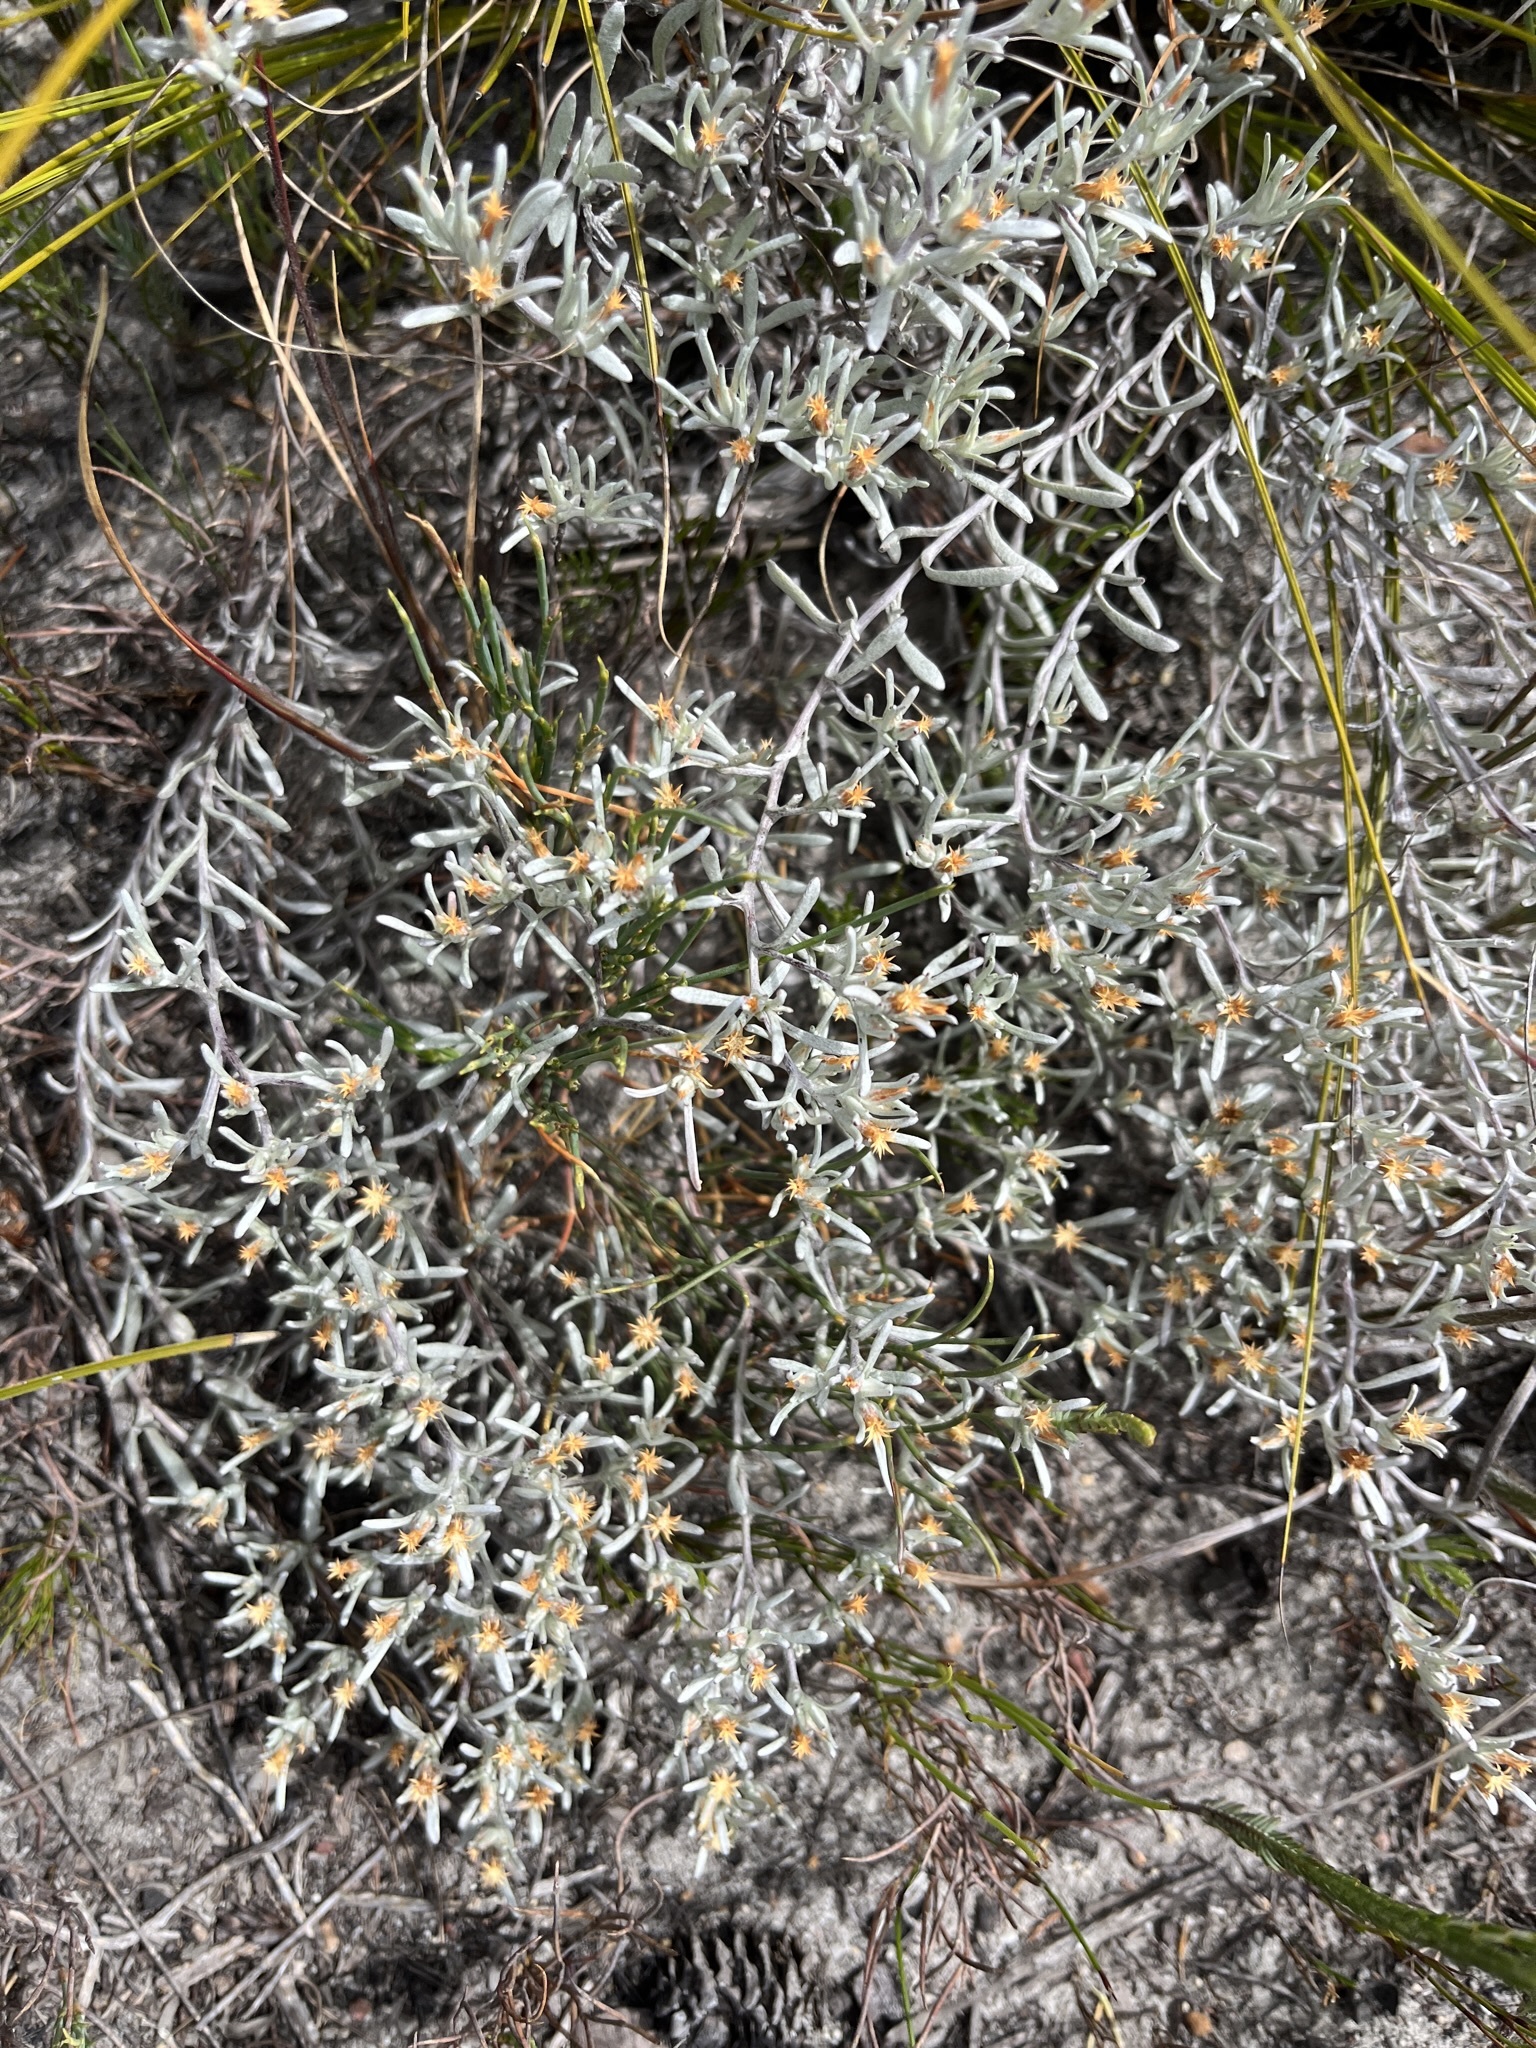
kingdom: Plantae
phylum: Tracheophyta
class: Magnoliopsida
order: Asterales
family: Asteraceae
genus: Helichrysum
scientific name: Helichrysum tinctum
